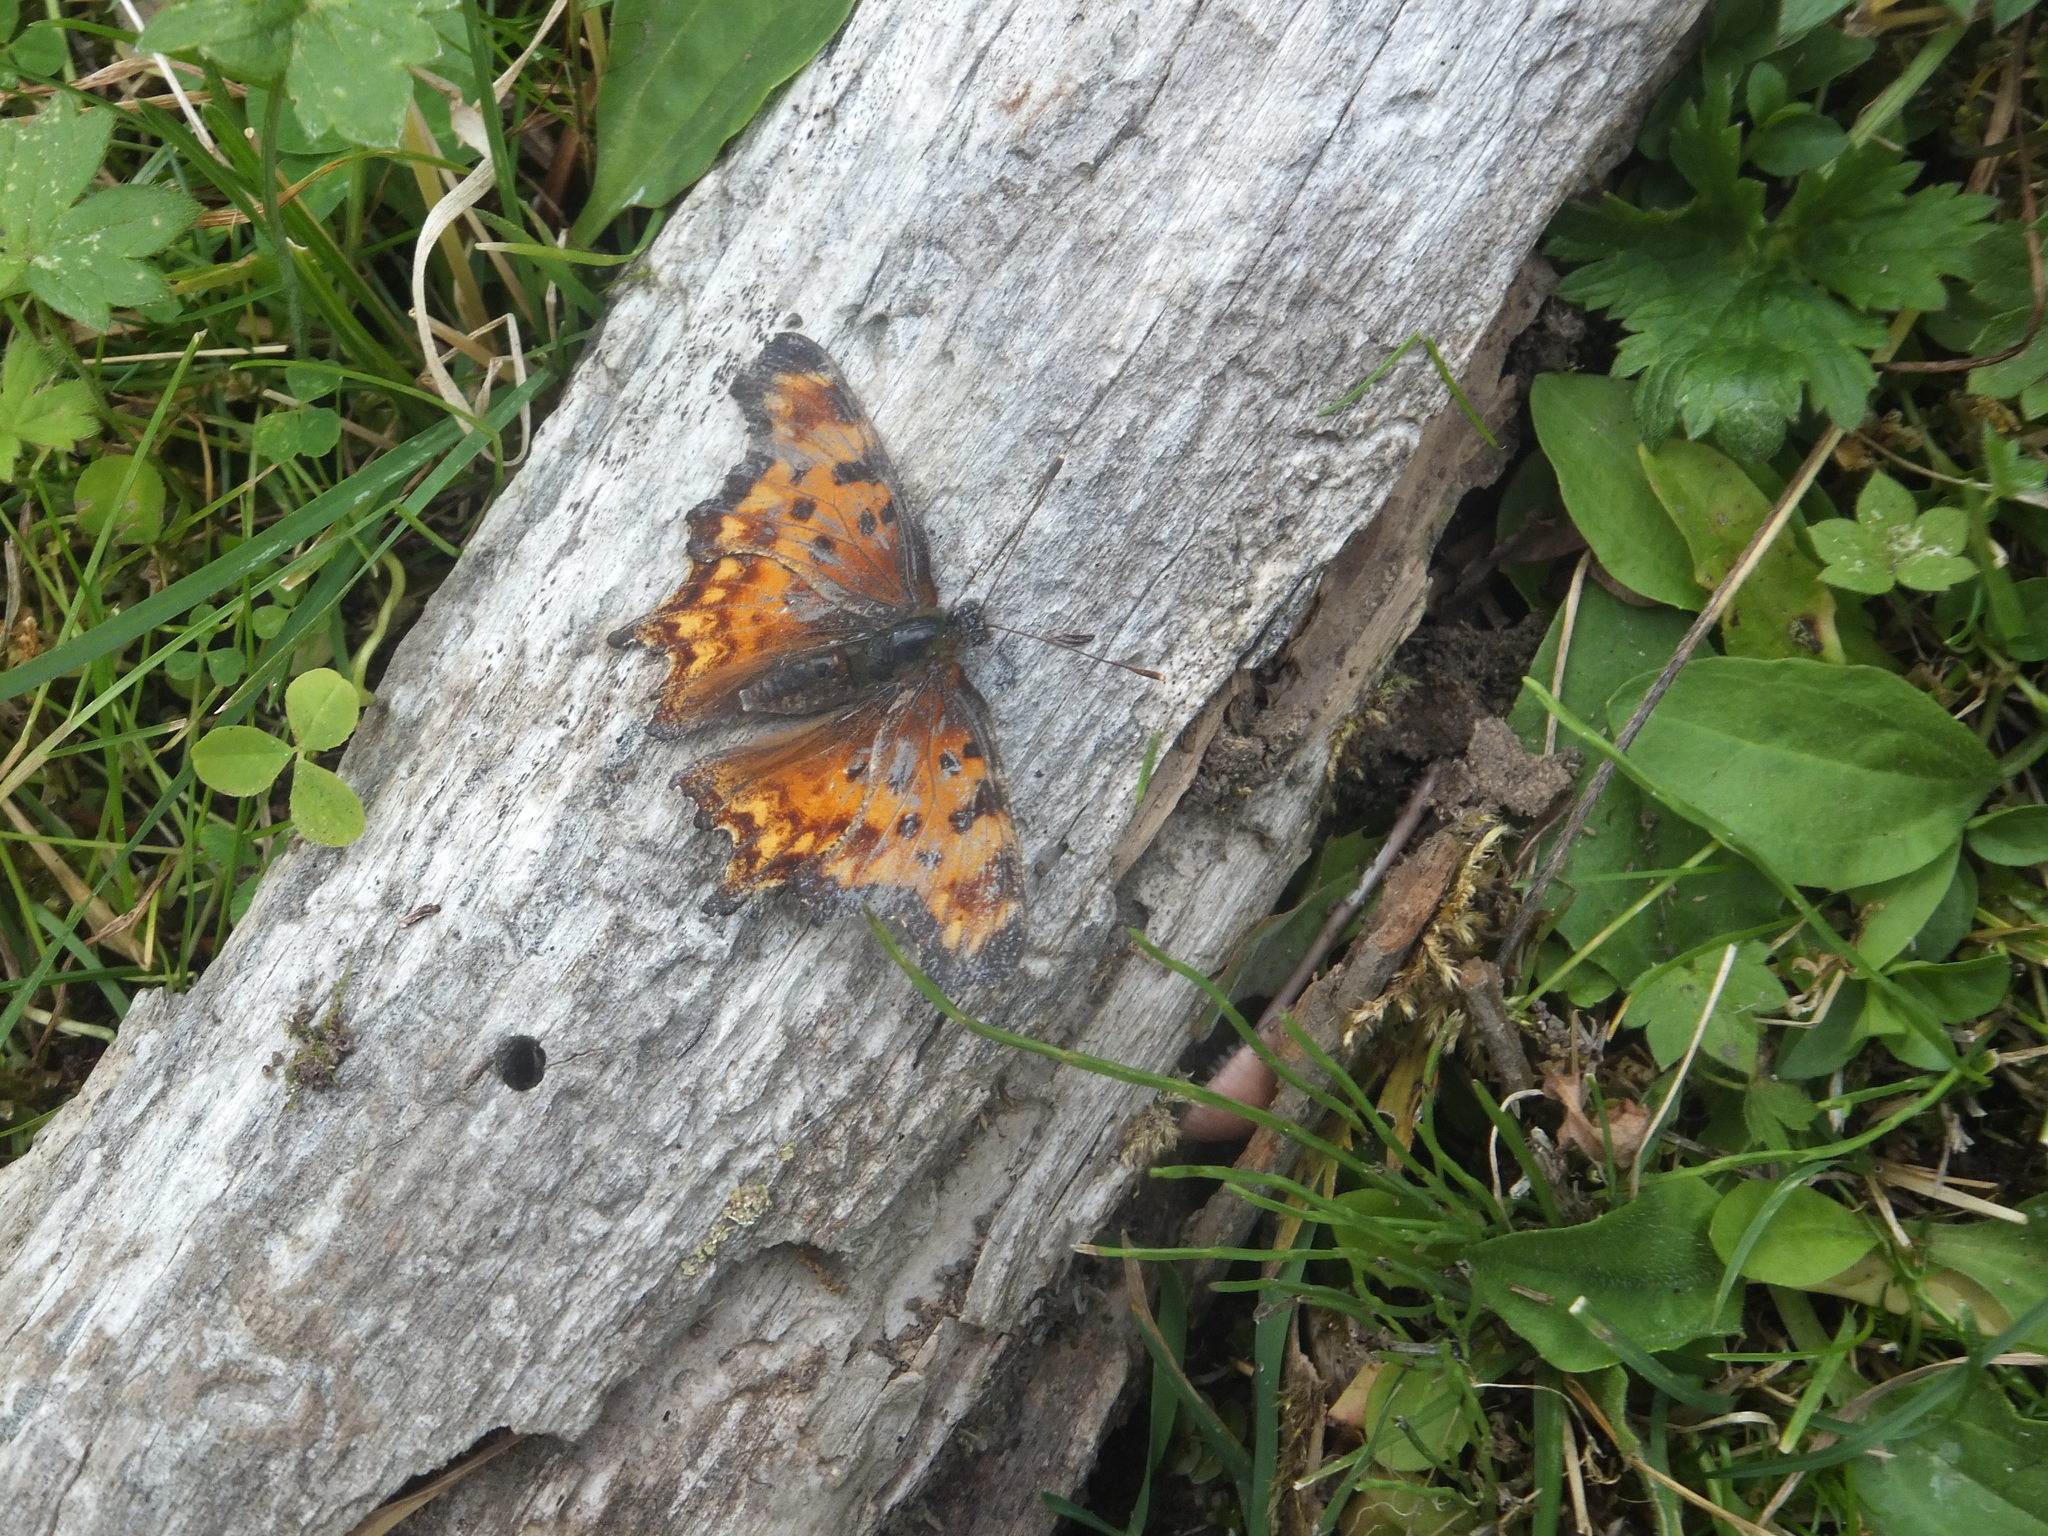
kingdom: Animalia
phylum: Arthropoda
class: Insecta
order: Lepidoptera
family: Nymphalidae
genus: Polygonia
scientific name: Polygonia oreas
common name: Oreas comma
